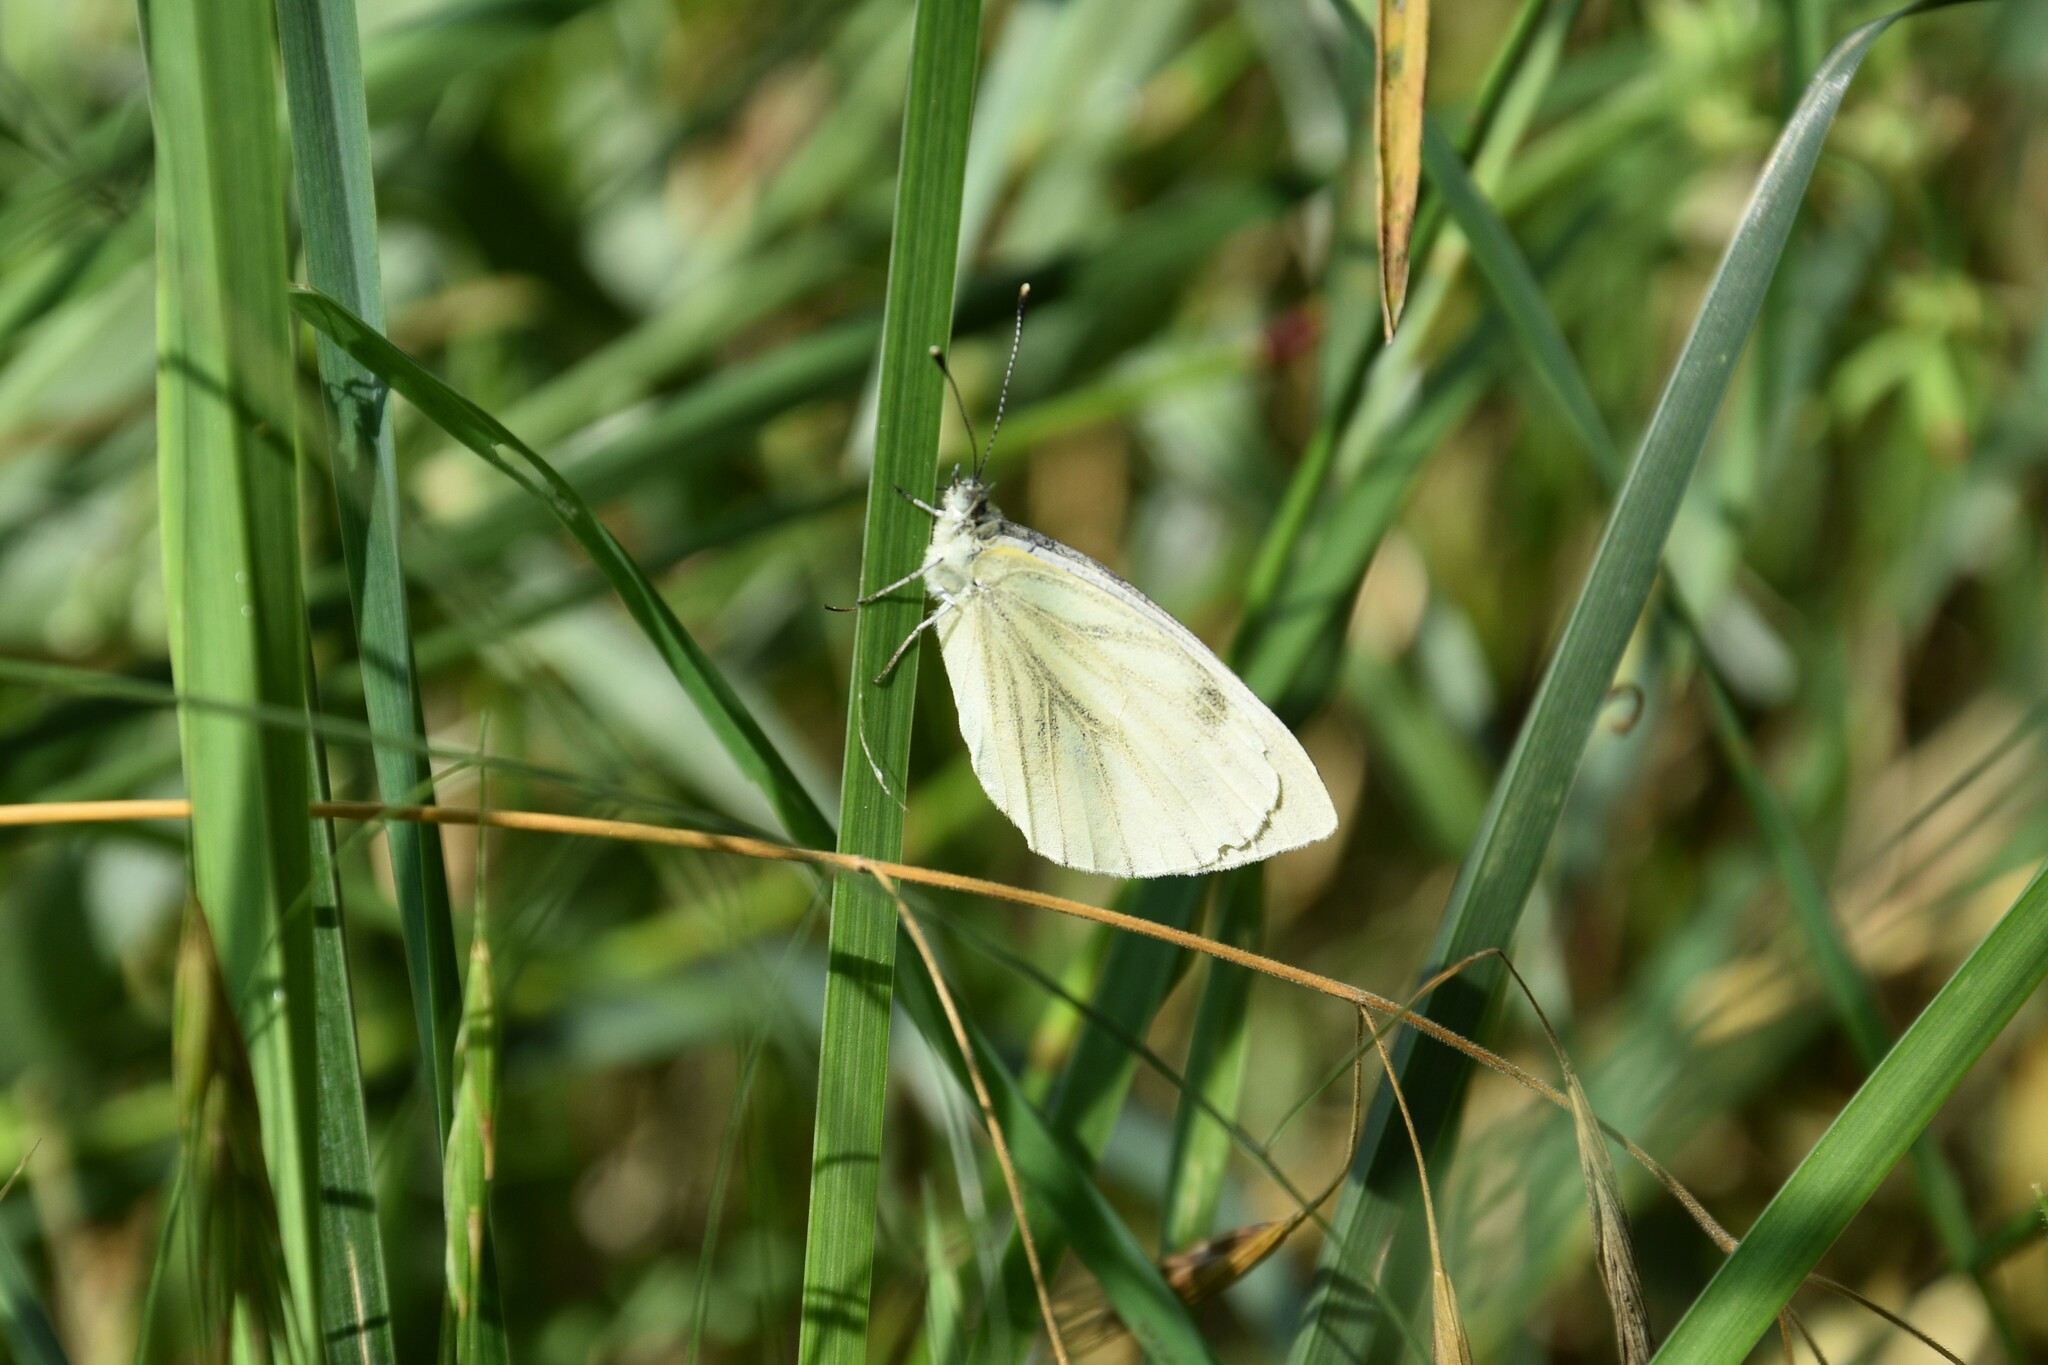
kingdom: Animalia
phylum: Arthropoda
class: Insecta
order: Lepidoptera
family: Pieridae
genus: Pieris
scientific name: Pieris napi
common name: Green-veined white
